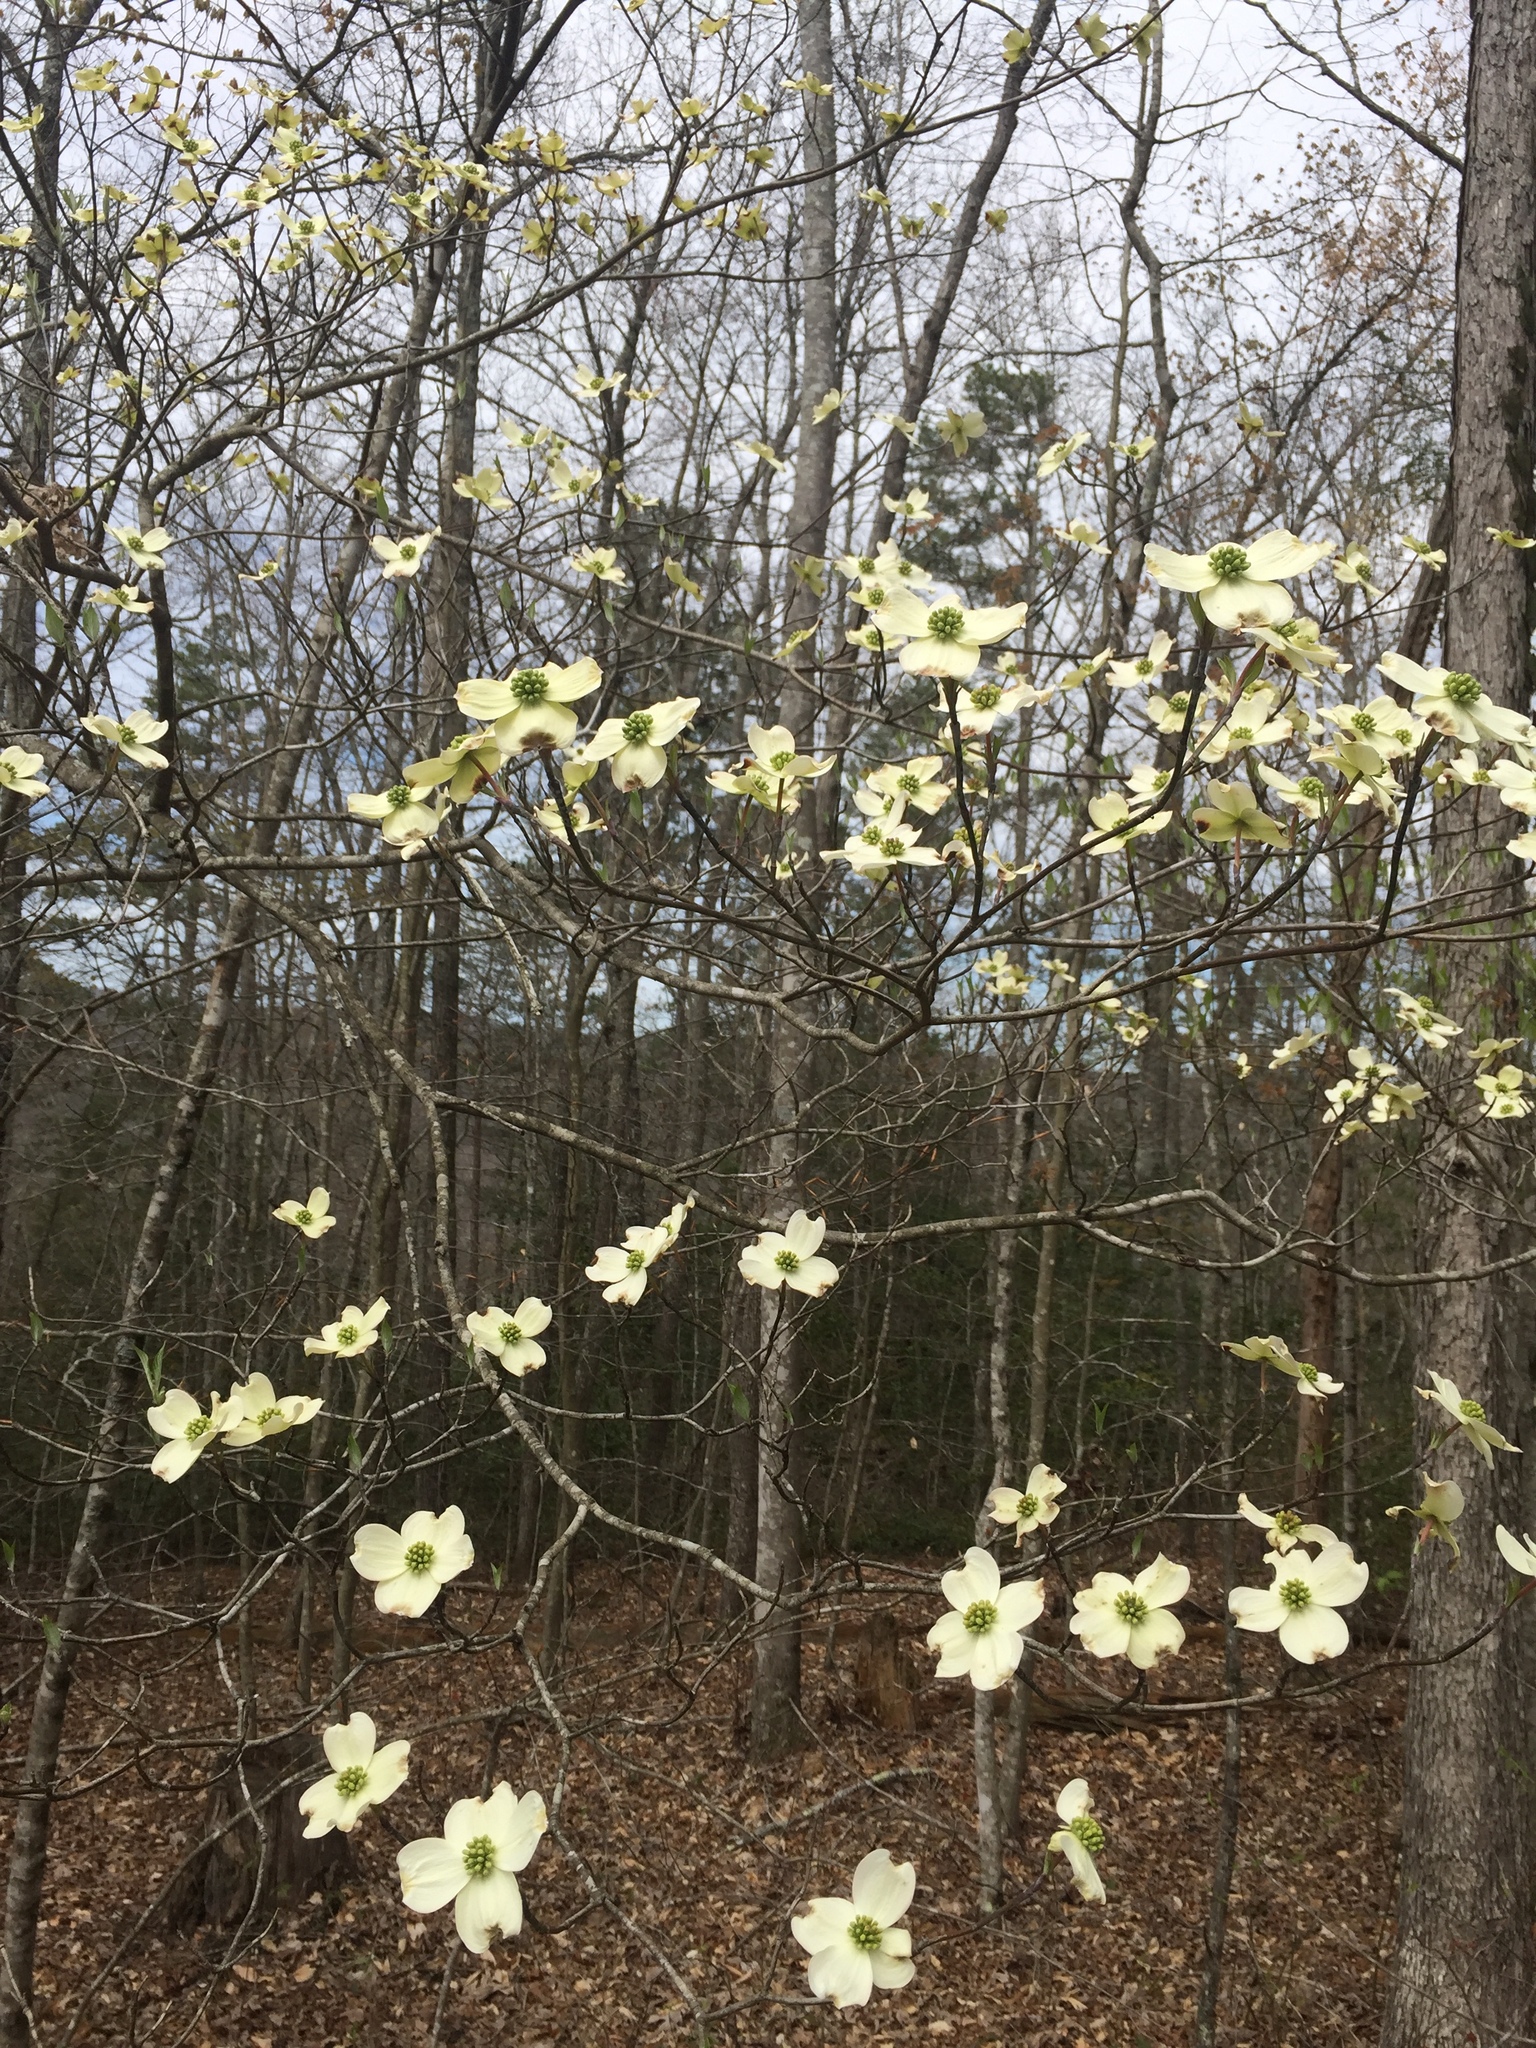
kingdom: Plantae
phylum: Tracheophyta
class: Magnoliopsida
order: Cornales
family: Cornaceae
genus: Cornus
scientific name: Cornus florida
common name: Flowering dogwood
